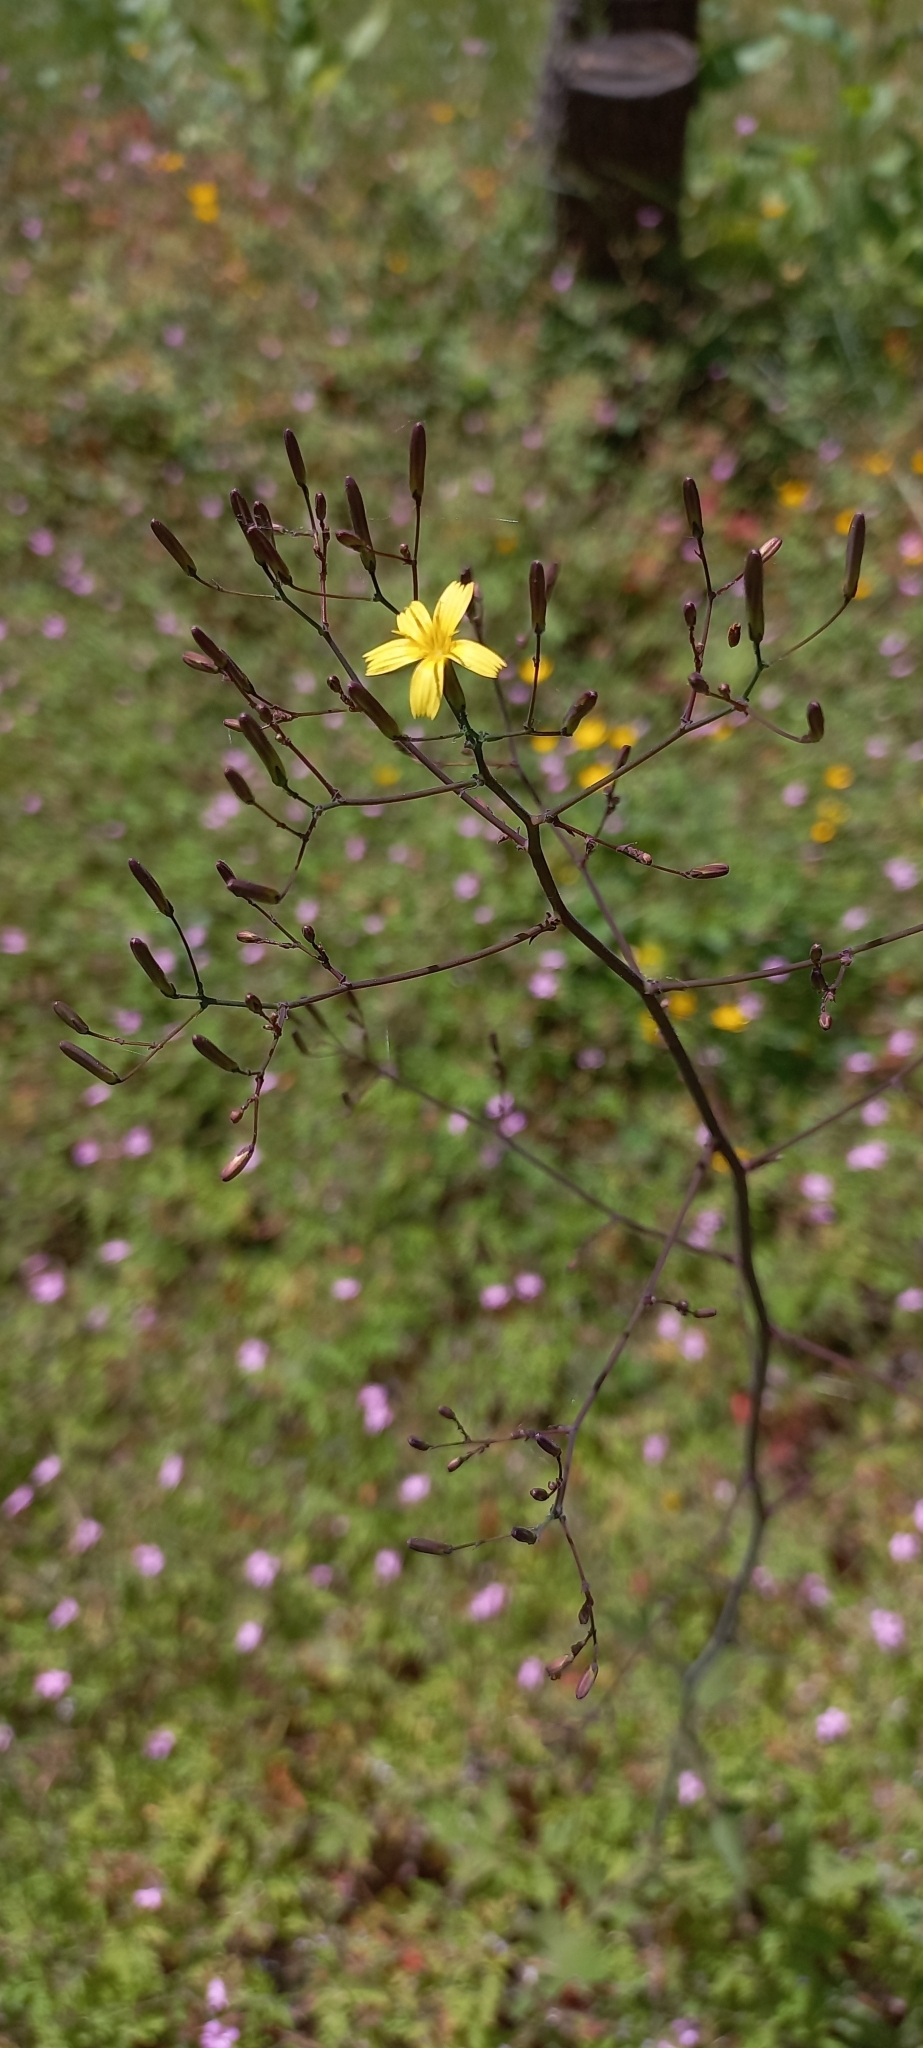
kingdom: Plantae
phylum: Tracheophyta
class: Magnoliopsida
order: Asterales
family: Asteraceae
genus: Mycelis
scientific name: Mycelis muralis
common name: Wall lettuce
